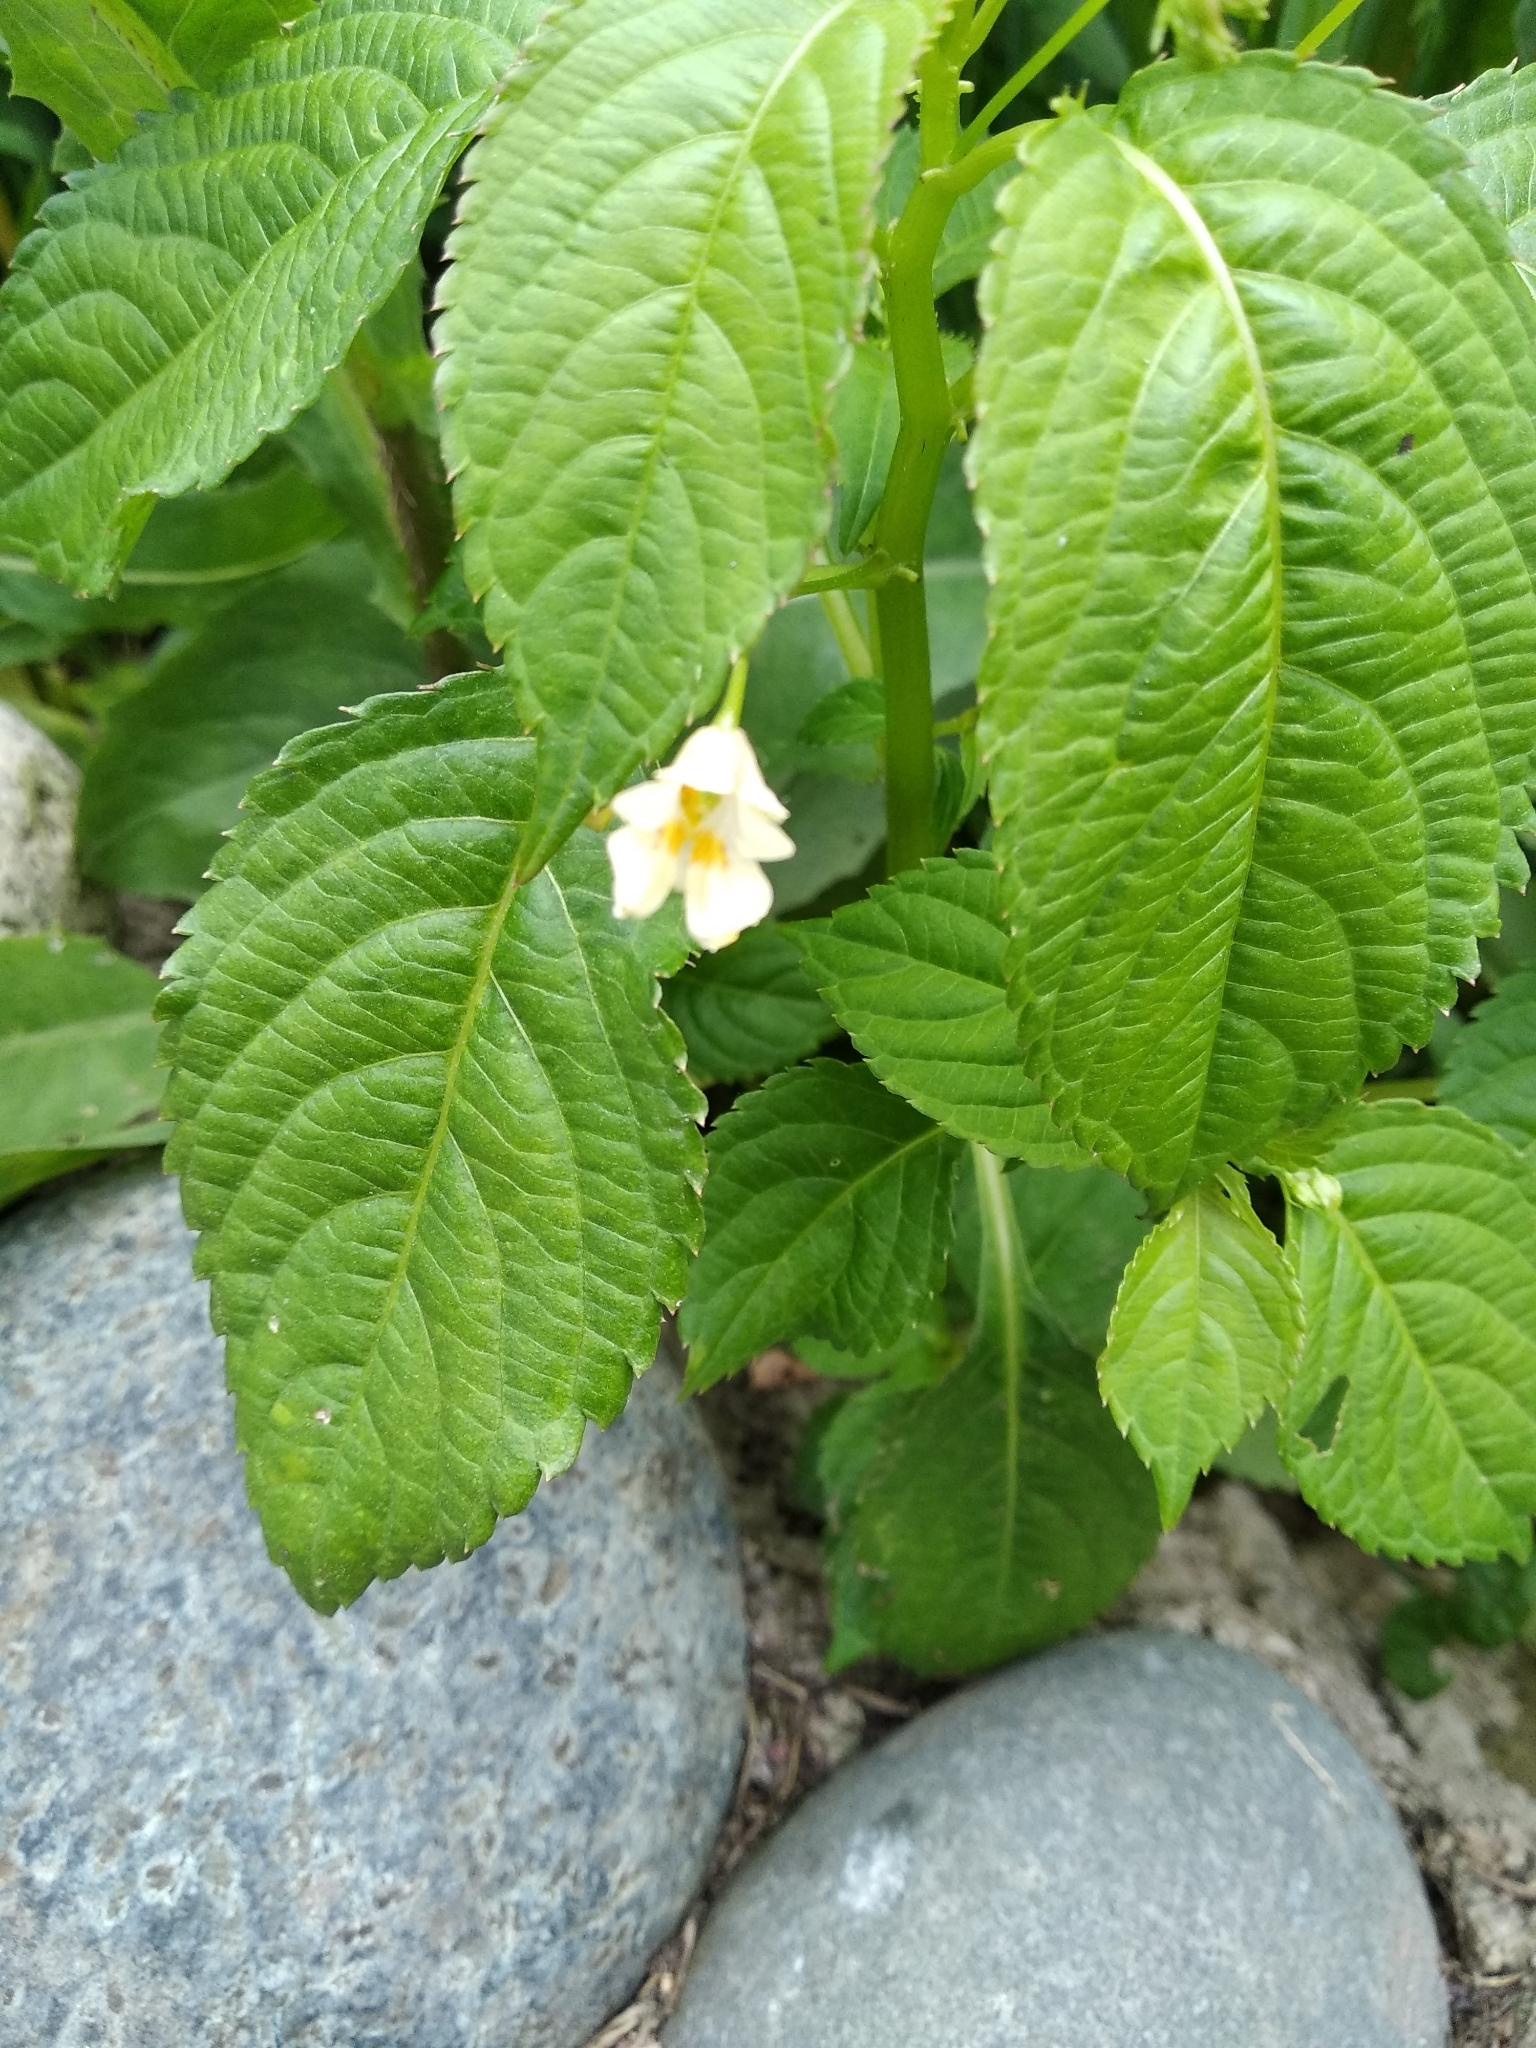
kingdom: Plantae
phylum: Tracheophyta
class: Magnoliopsida
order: Ericales
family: Balsaminaceae
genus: Impatiens
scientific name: Impatiens parviflora
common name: Small balsam
